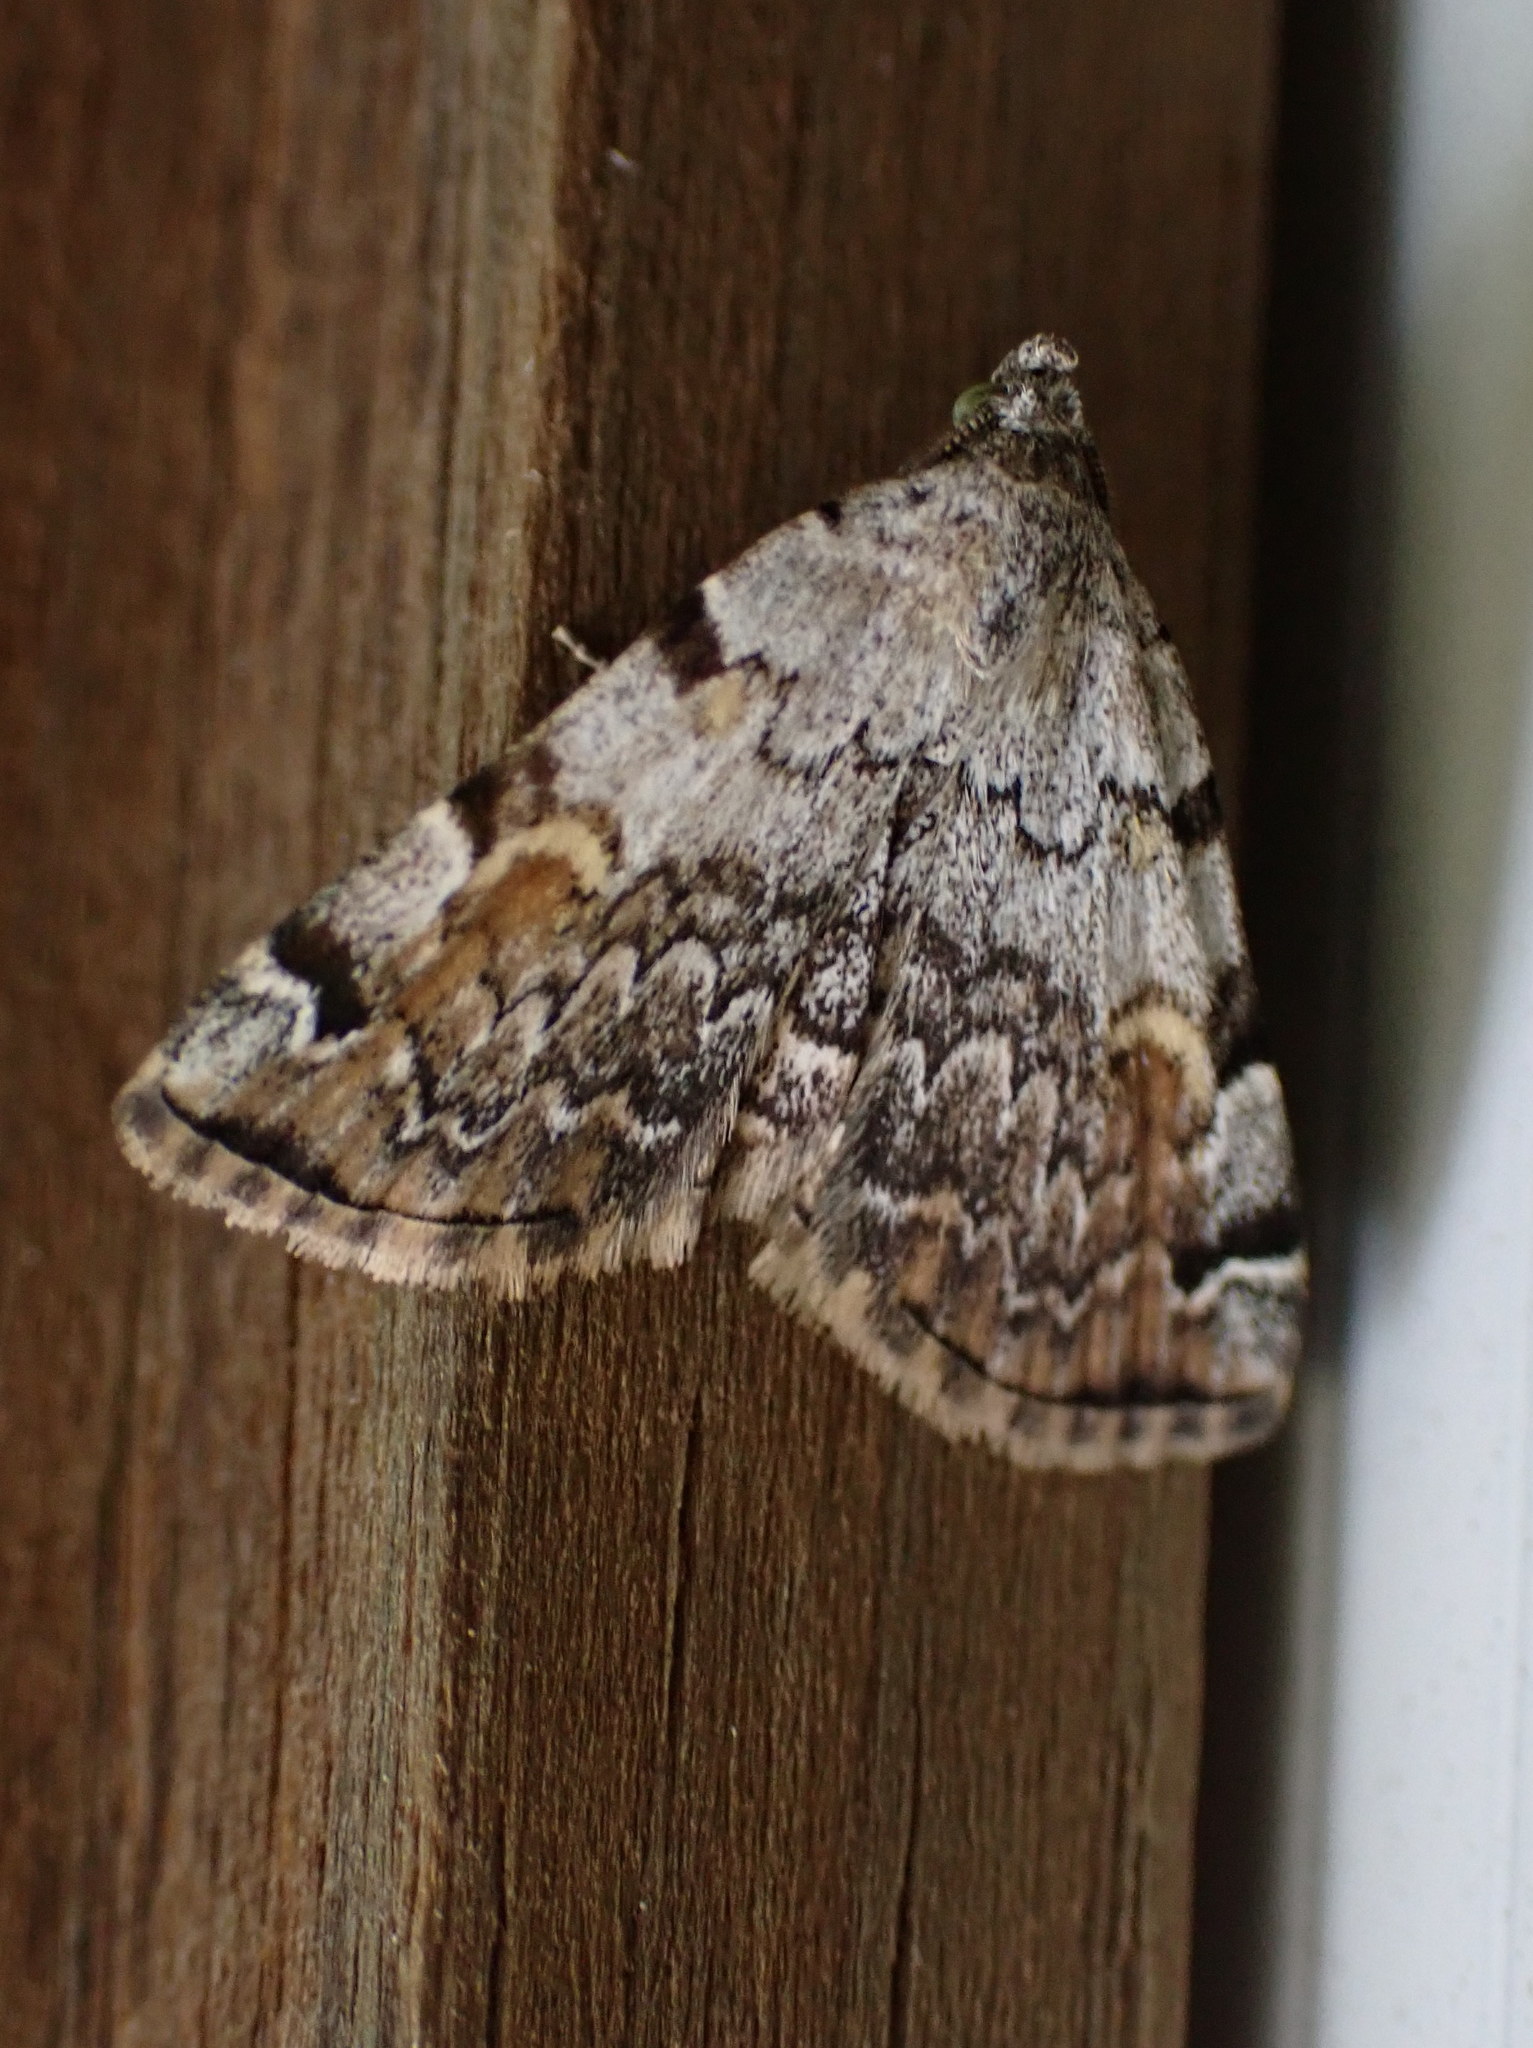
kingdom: Animalia
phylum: Arthropoda
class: Insecta
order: Lepidoptera
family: Erebidae
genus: Idia
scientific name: Idia americalis
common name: American idia moth
